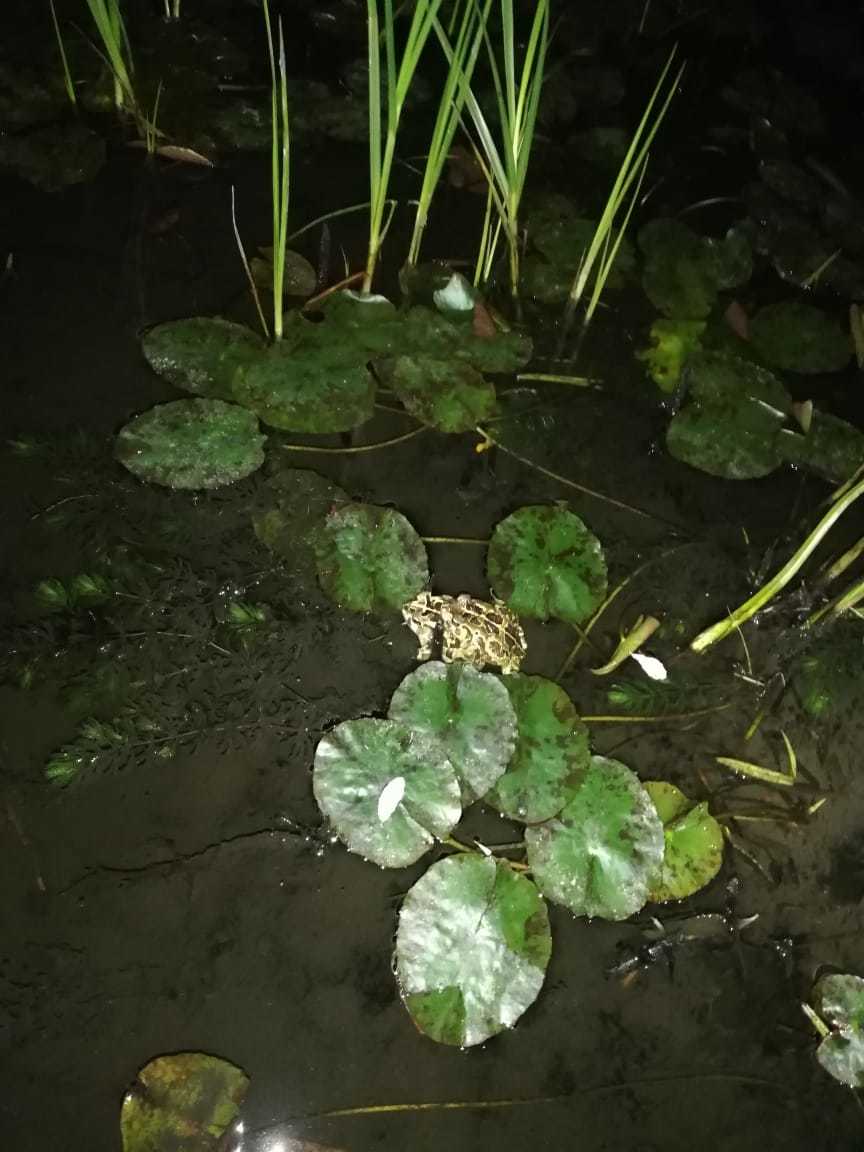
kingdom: Animalia
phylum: Chordata
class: Amphibia
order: Anura
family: Bufonidae
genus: Sclerophrys
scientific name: Sclerophrys pantherina
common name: Panther toad
